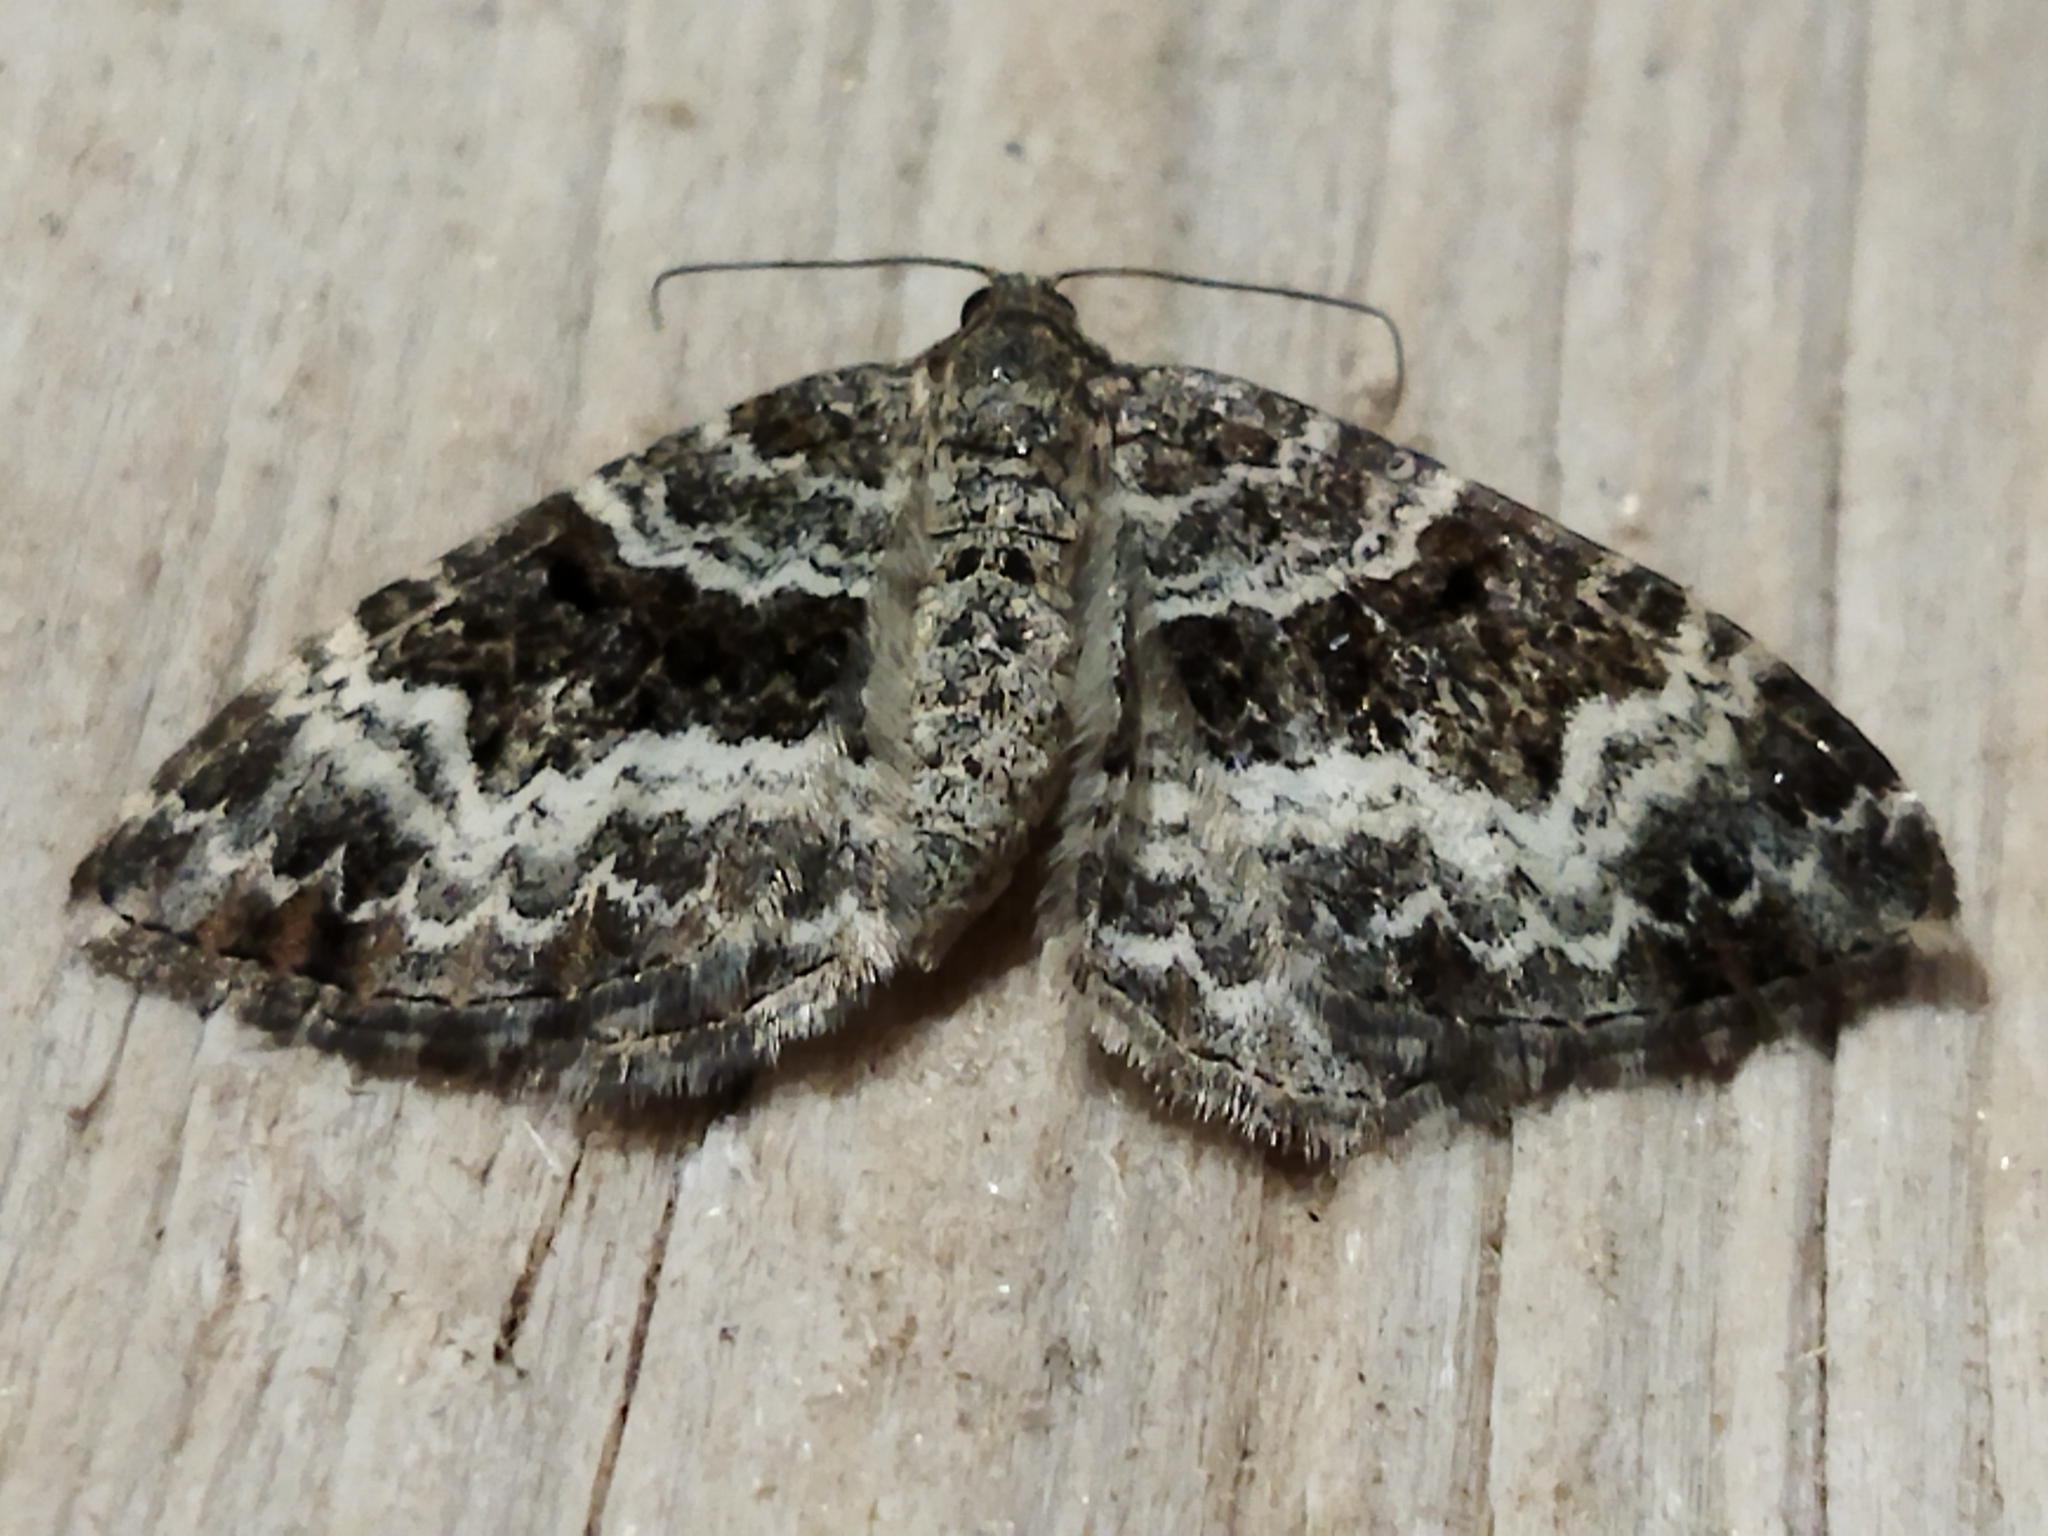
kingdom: Animalia
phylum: Arthropoda
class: Insecta
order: Lepidoptera
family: Geometridae
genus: Epirrhoe
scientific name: Epirrhoe alternata
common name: Common carpet
